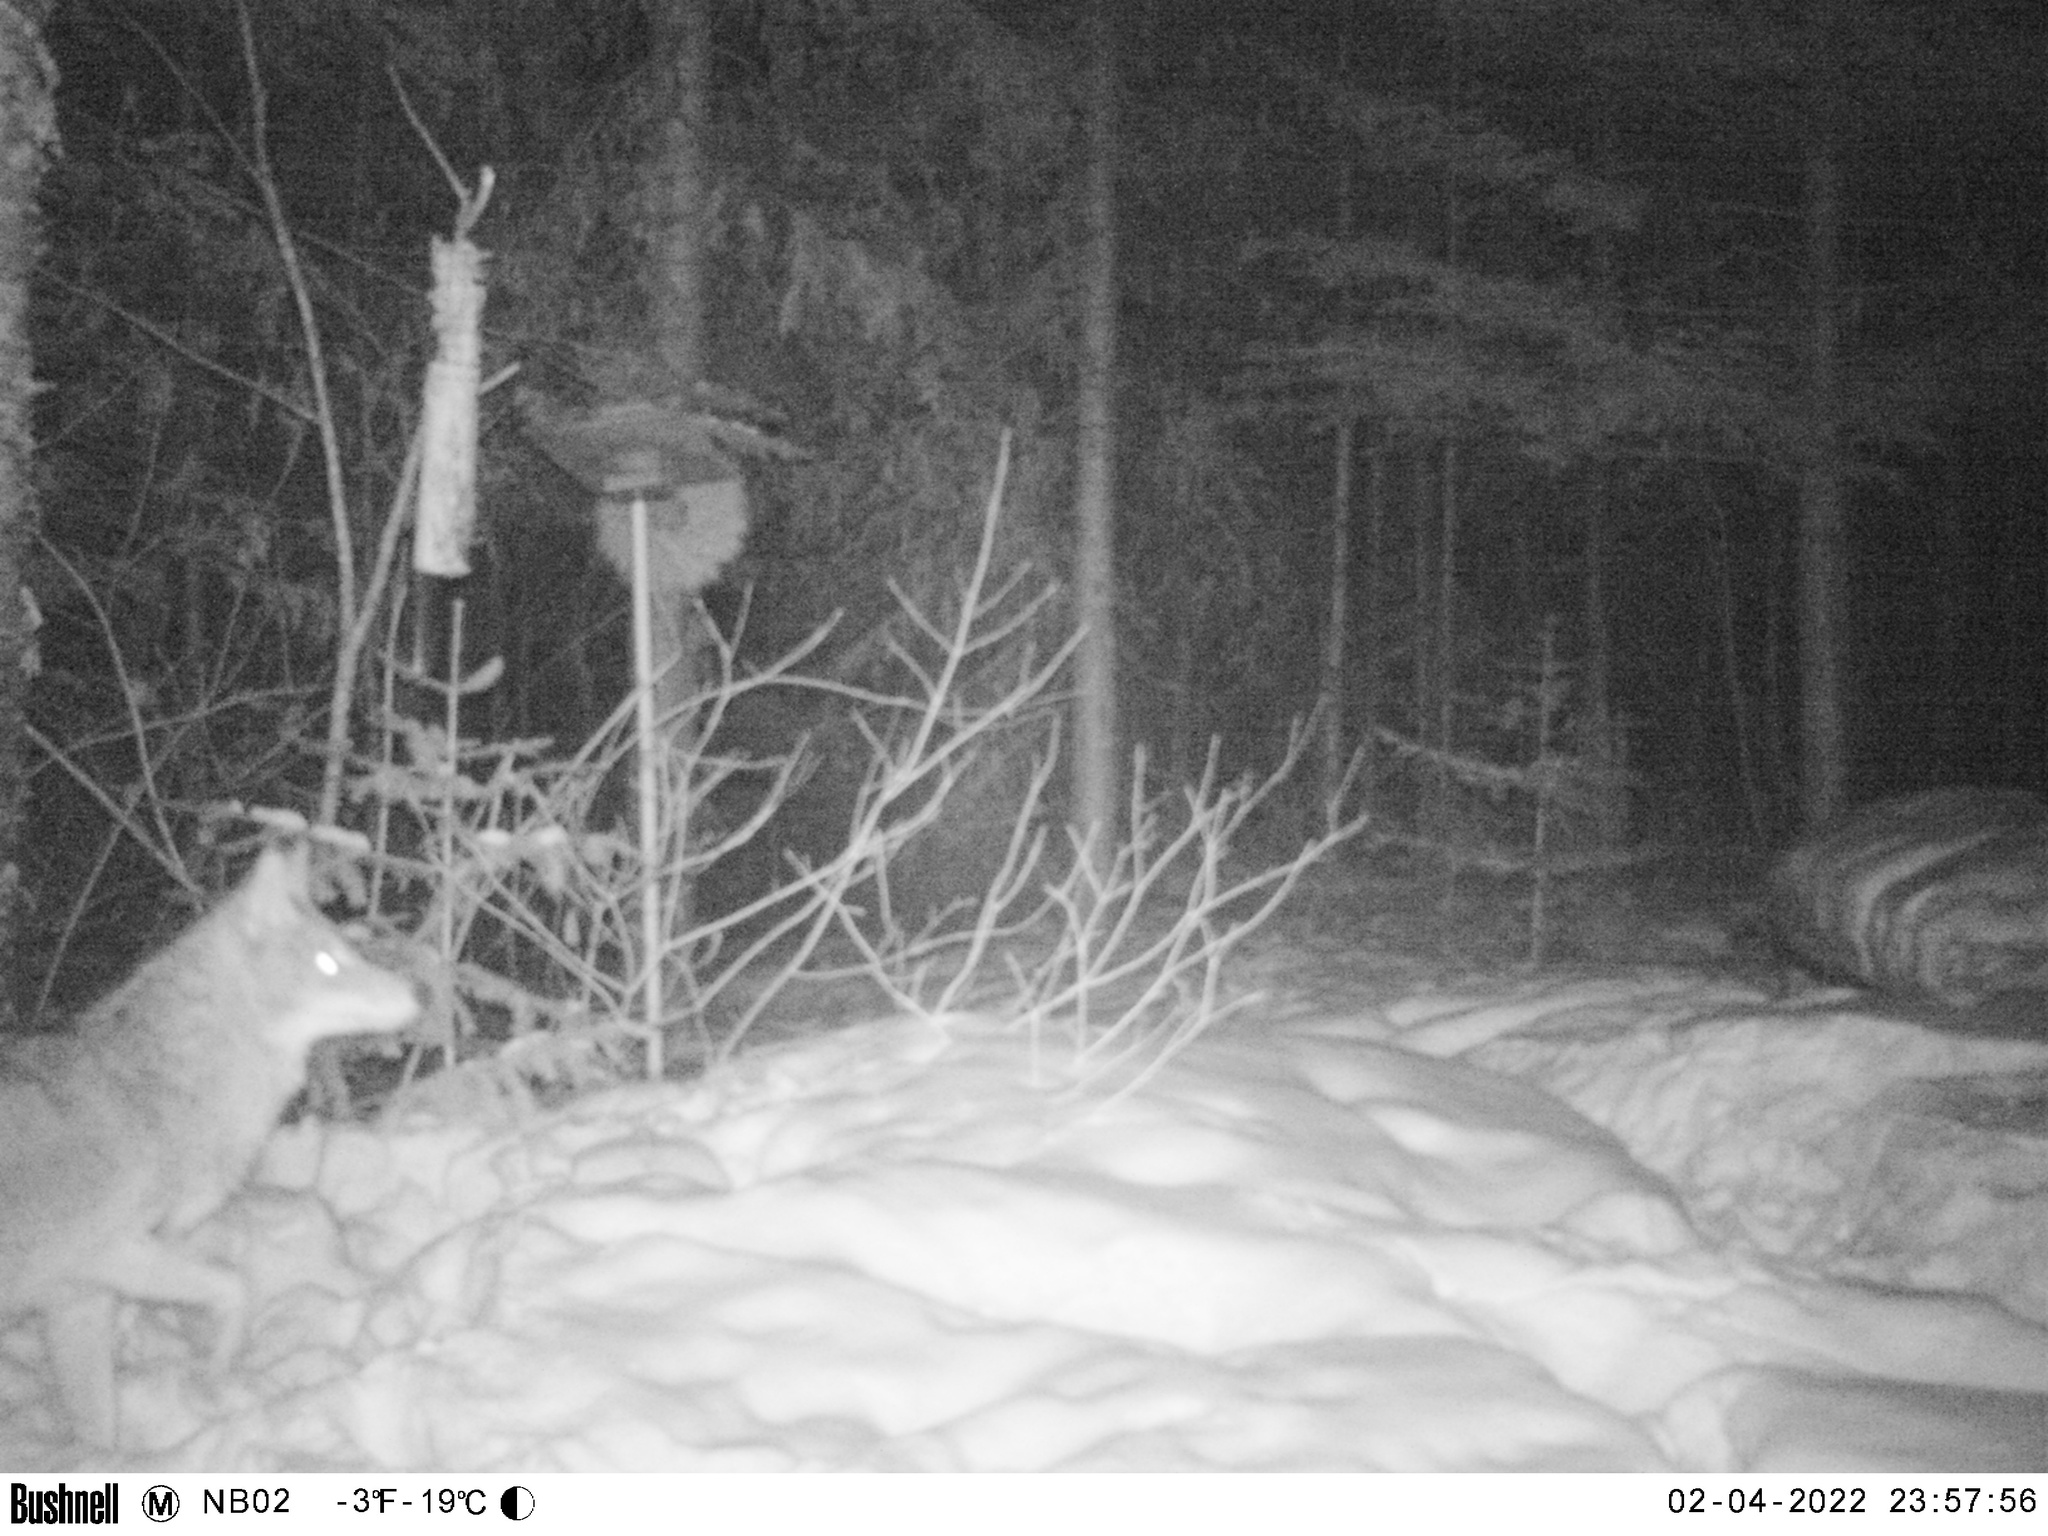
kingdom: Animalia
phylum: Chordata
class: Mammalia
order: Carnivora
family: Canidae
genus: Canis
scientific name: Canis latrans
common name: Coyote
